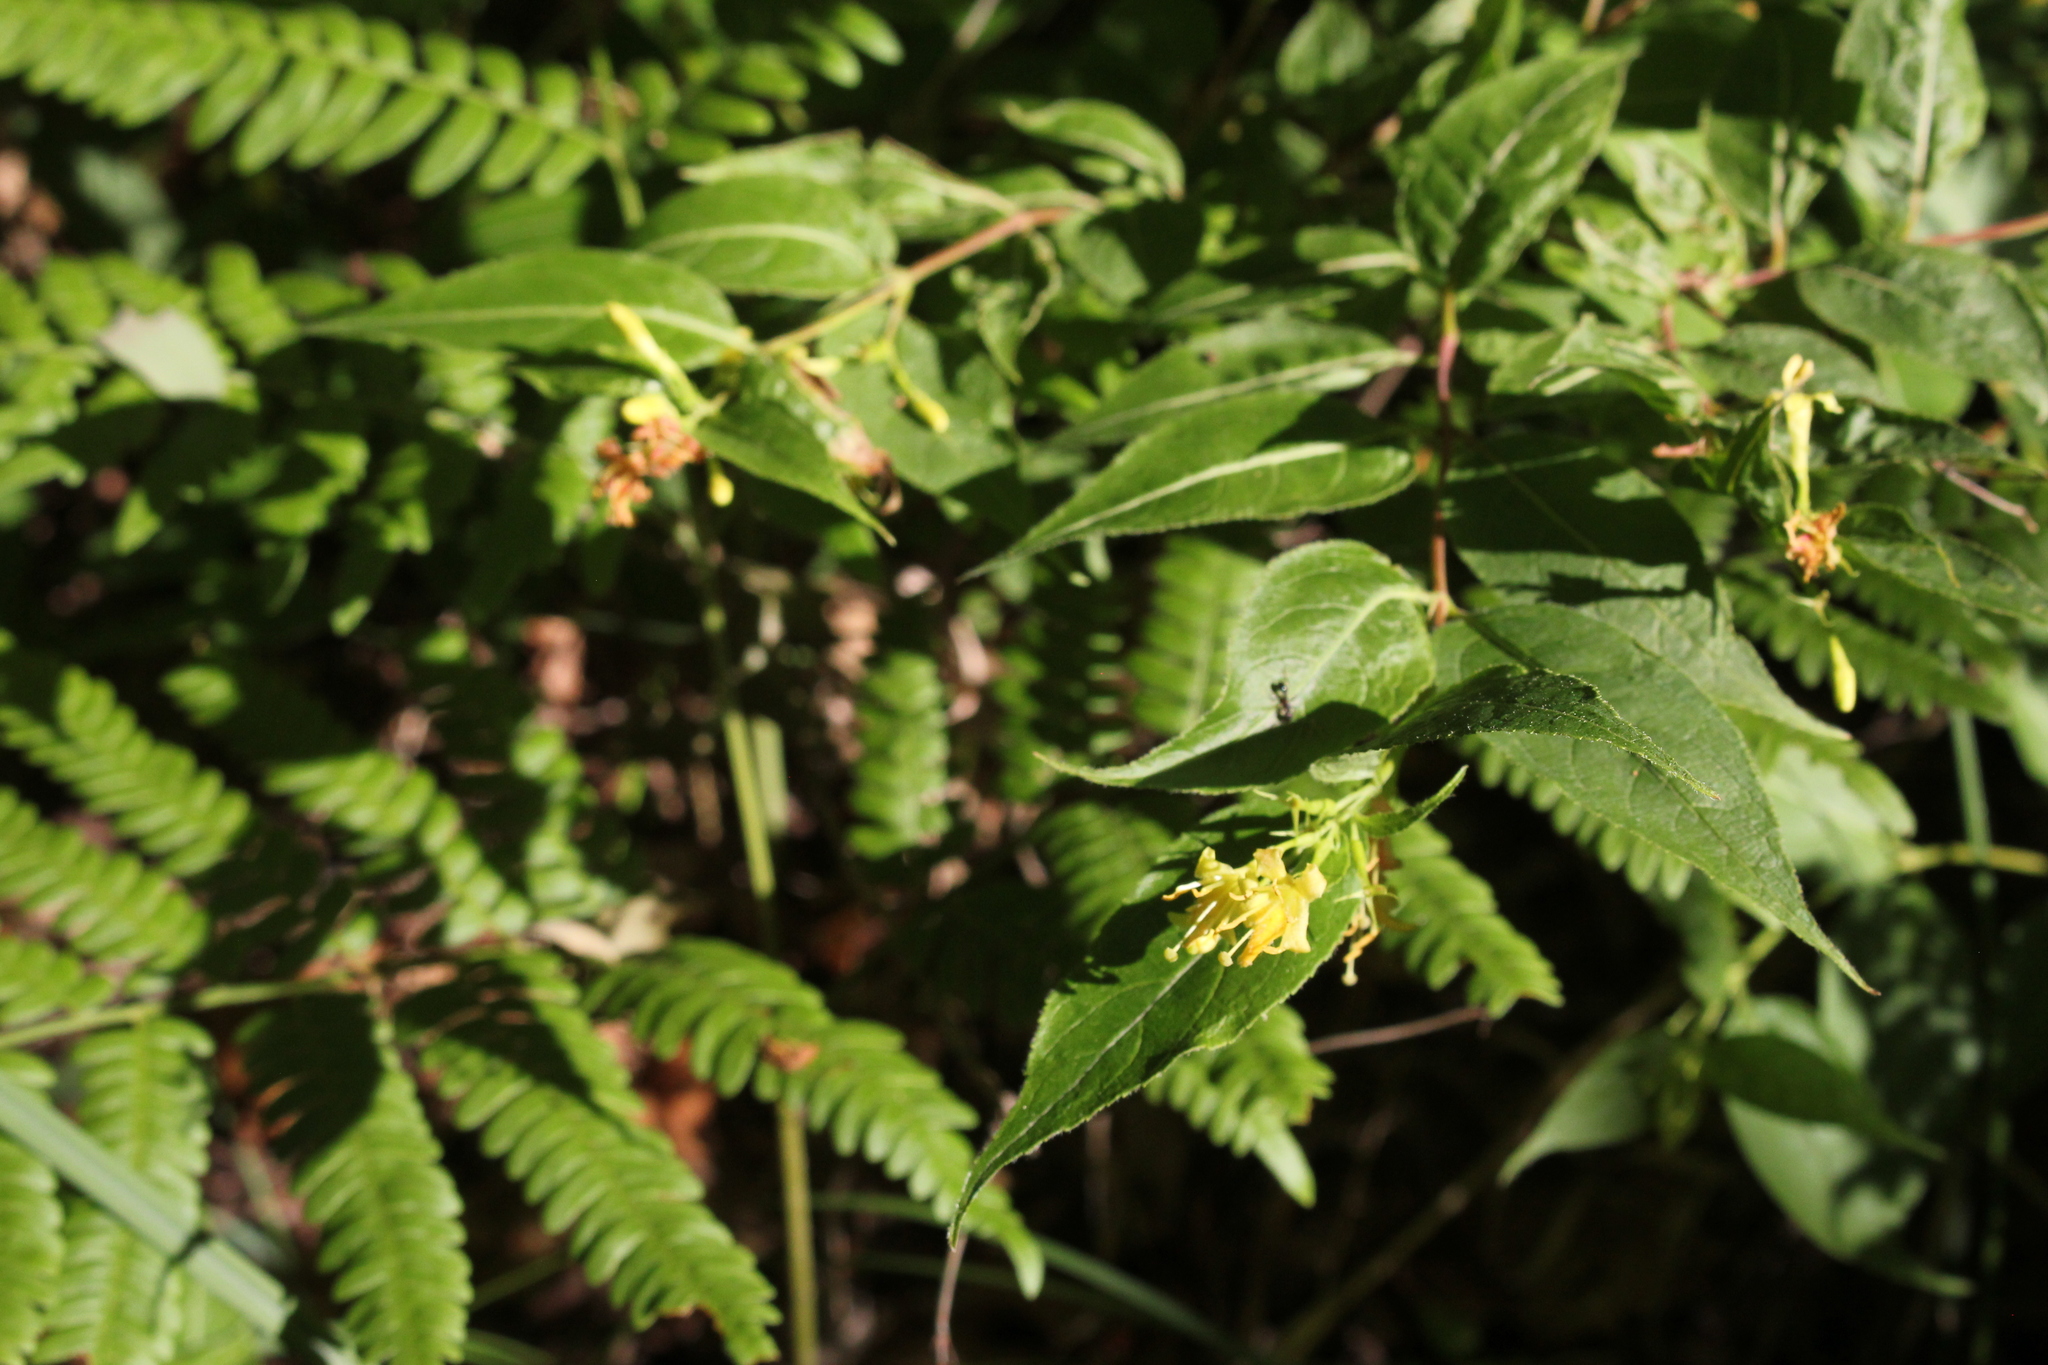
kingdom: Plantae
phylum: Tracheophyta
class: Magnoliopsida
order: Dipsacales
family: Caprifoliaceae
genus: Diervilla
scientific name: Diervilla lonicera
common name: Bush-honeysuckle
